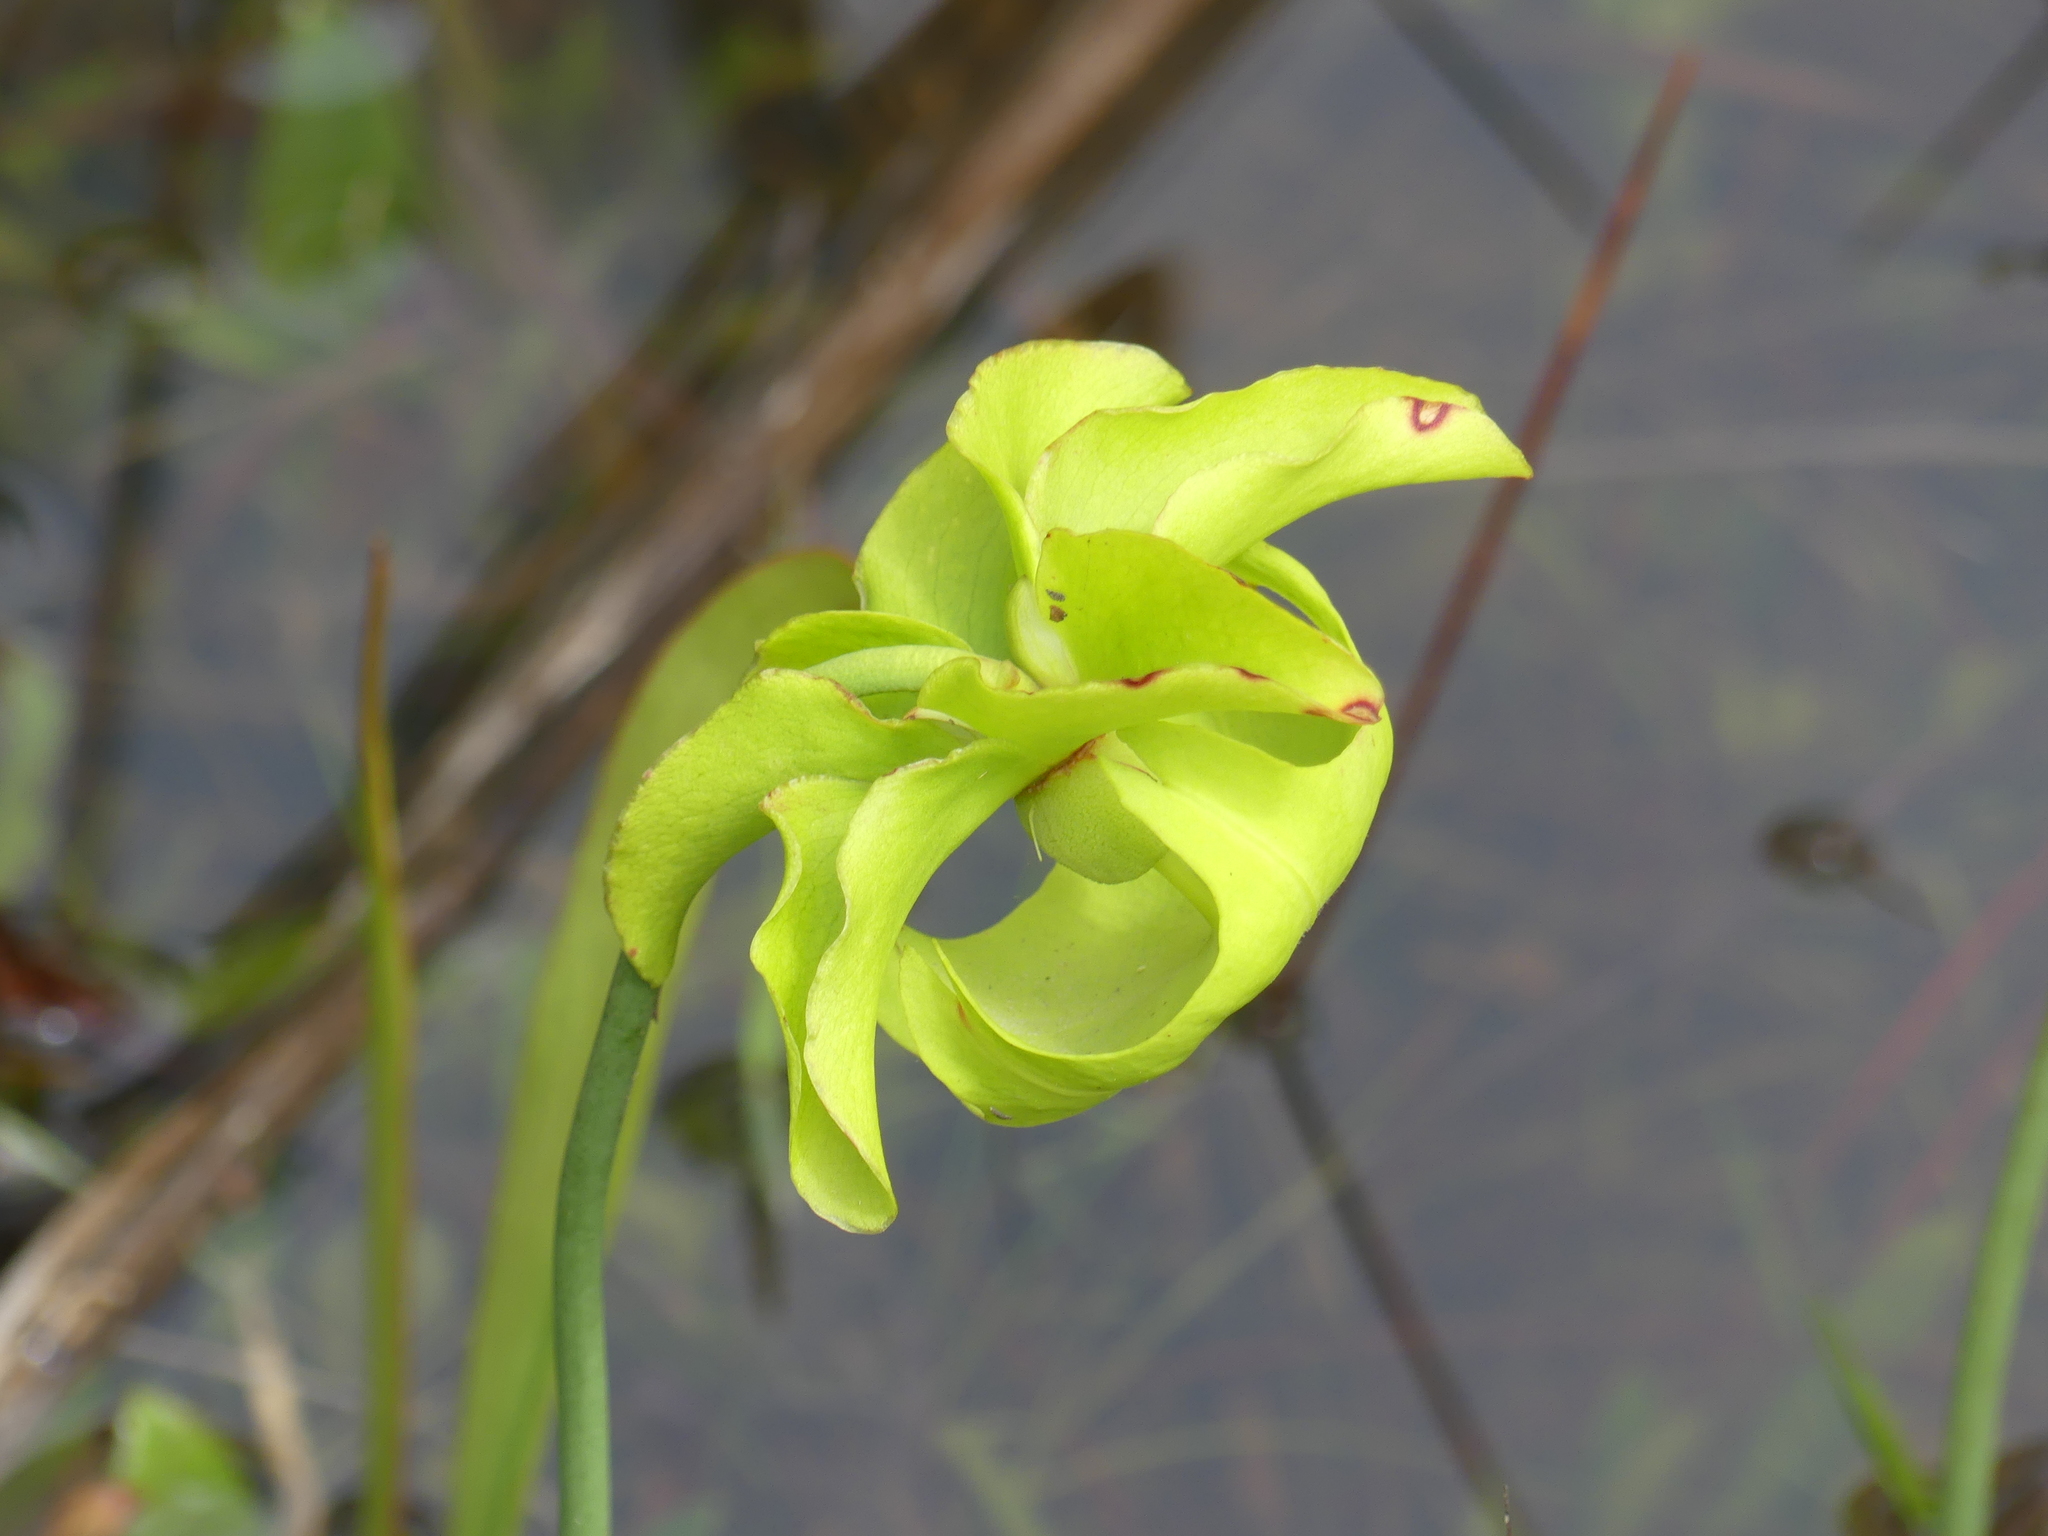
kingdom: Plantae
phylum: Tracheophyta
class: Magnoliopsida
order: Ericales
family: Sarraceniaceae
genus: Sarracenia
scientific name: Sarracenia alata
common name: Yellow trumpets
